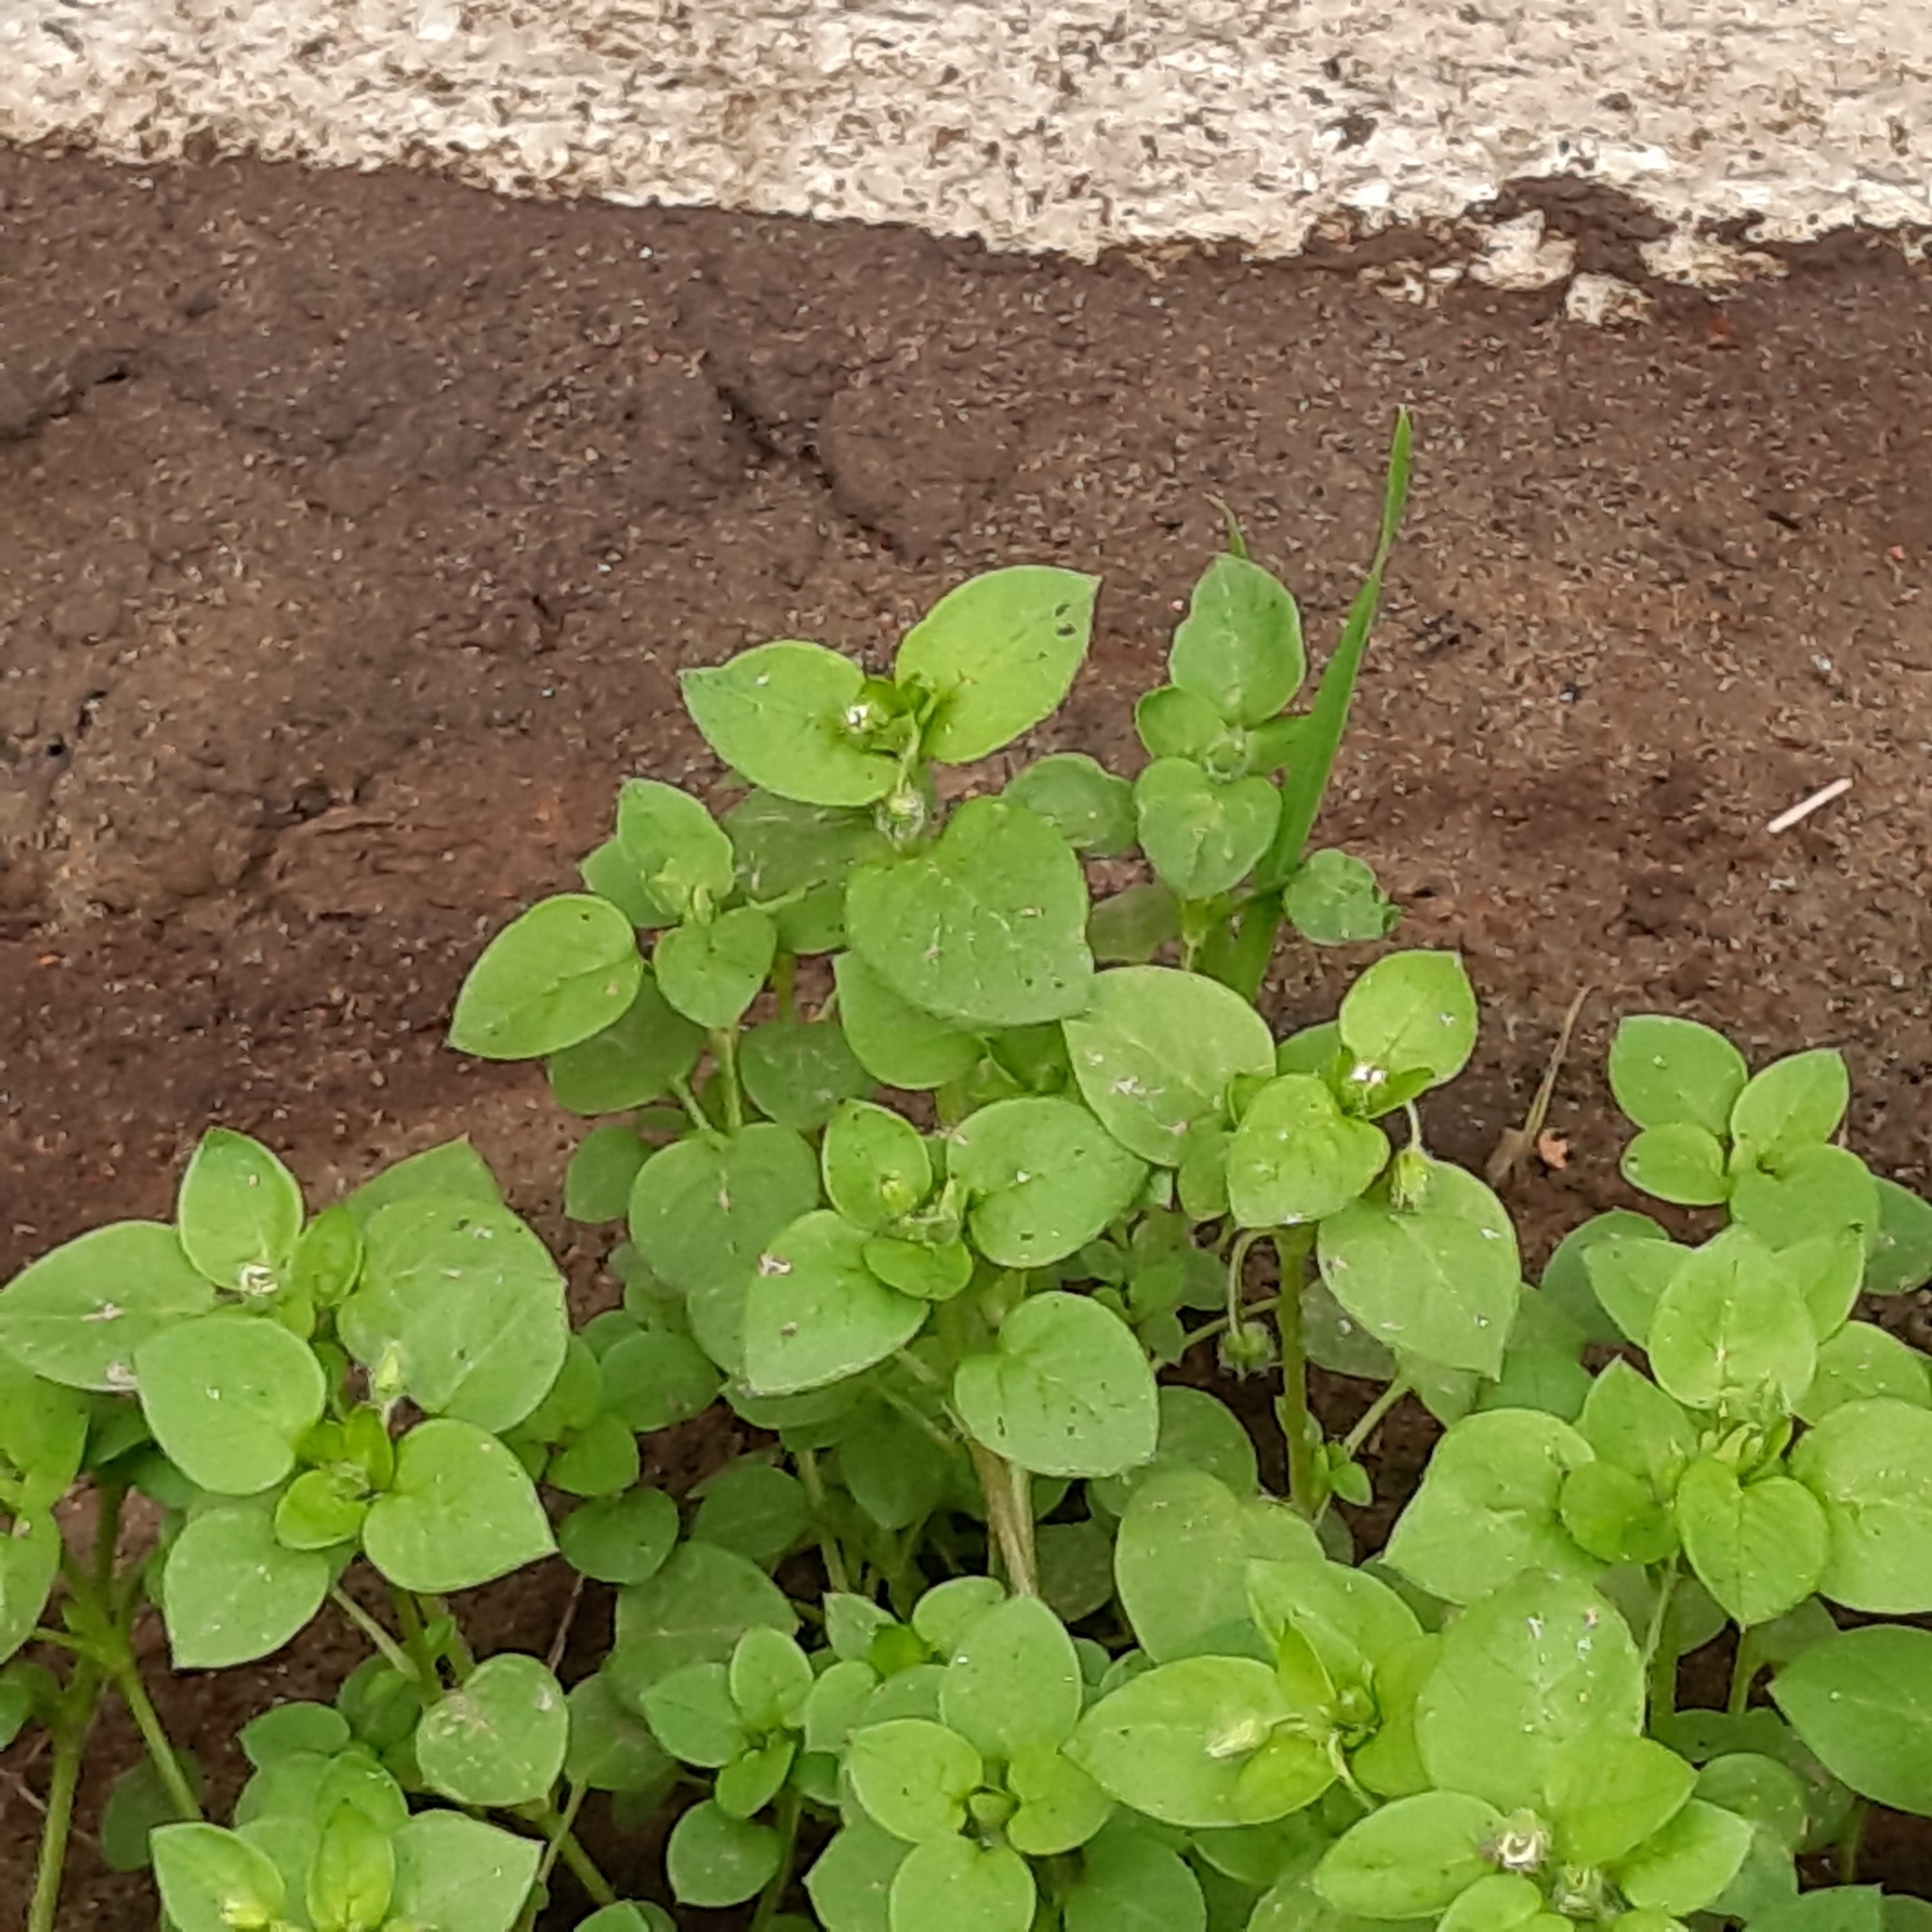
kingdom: Plantae
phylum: Tracheophyta
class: Magnoliopsida
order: Caryophyllales
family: Caryophyllaceae
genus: Stellaria
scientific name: Stellaria media
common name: Common chickweed
